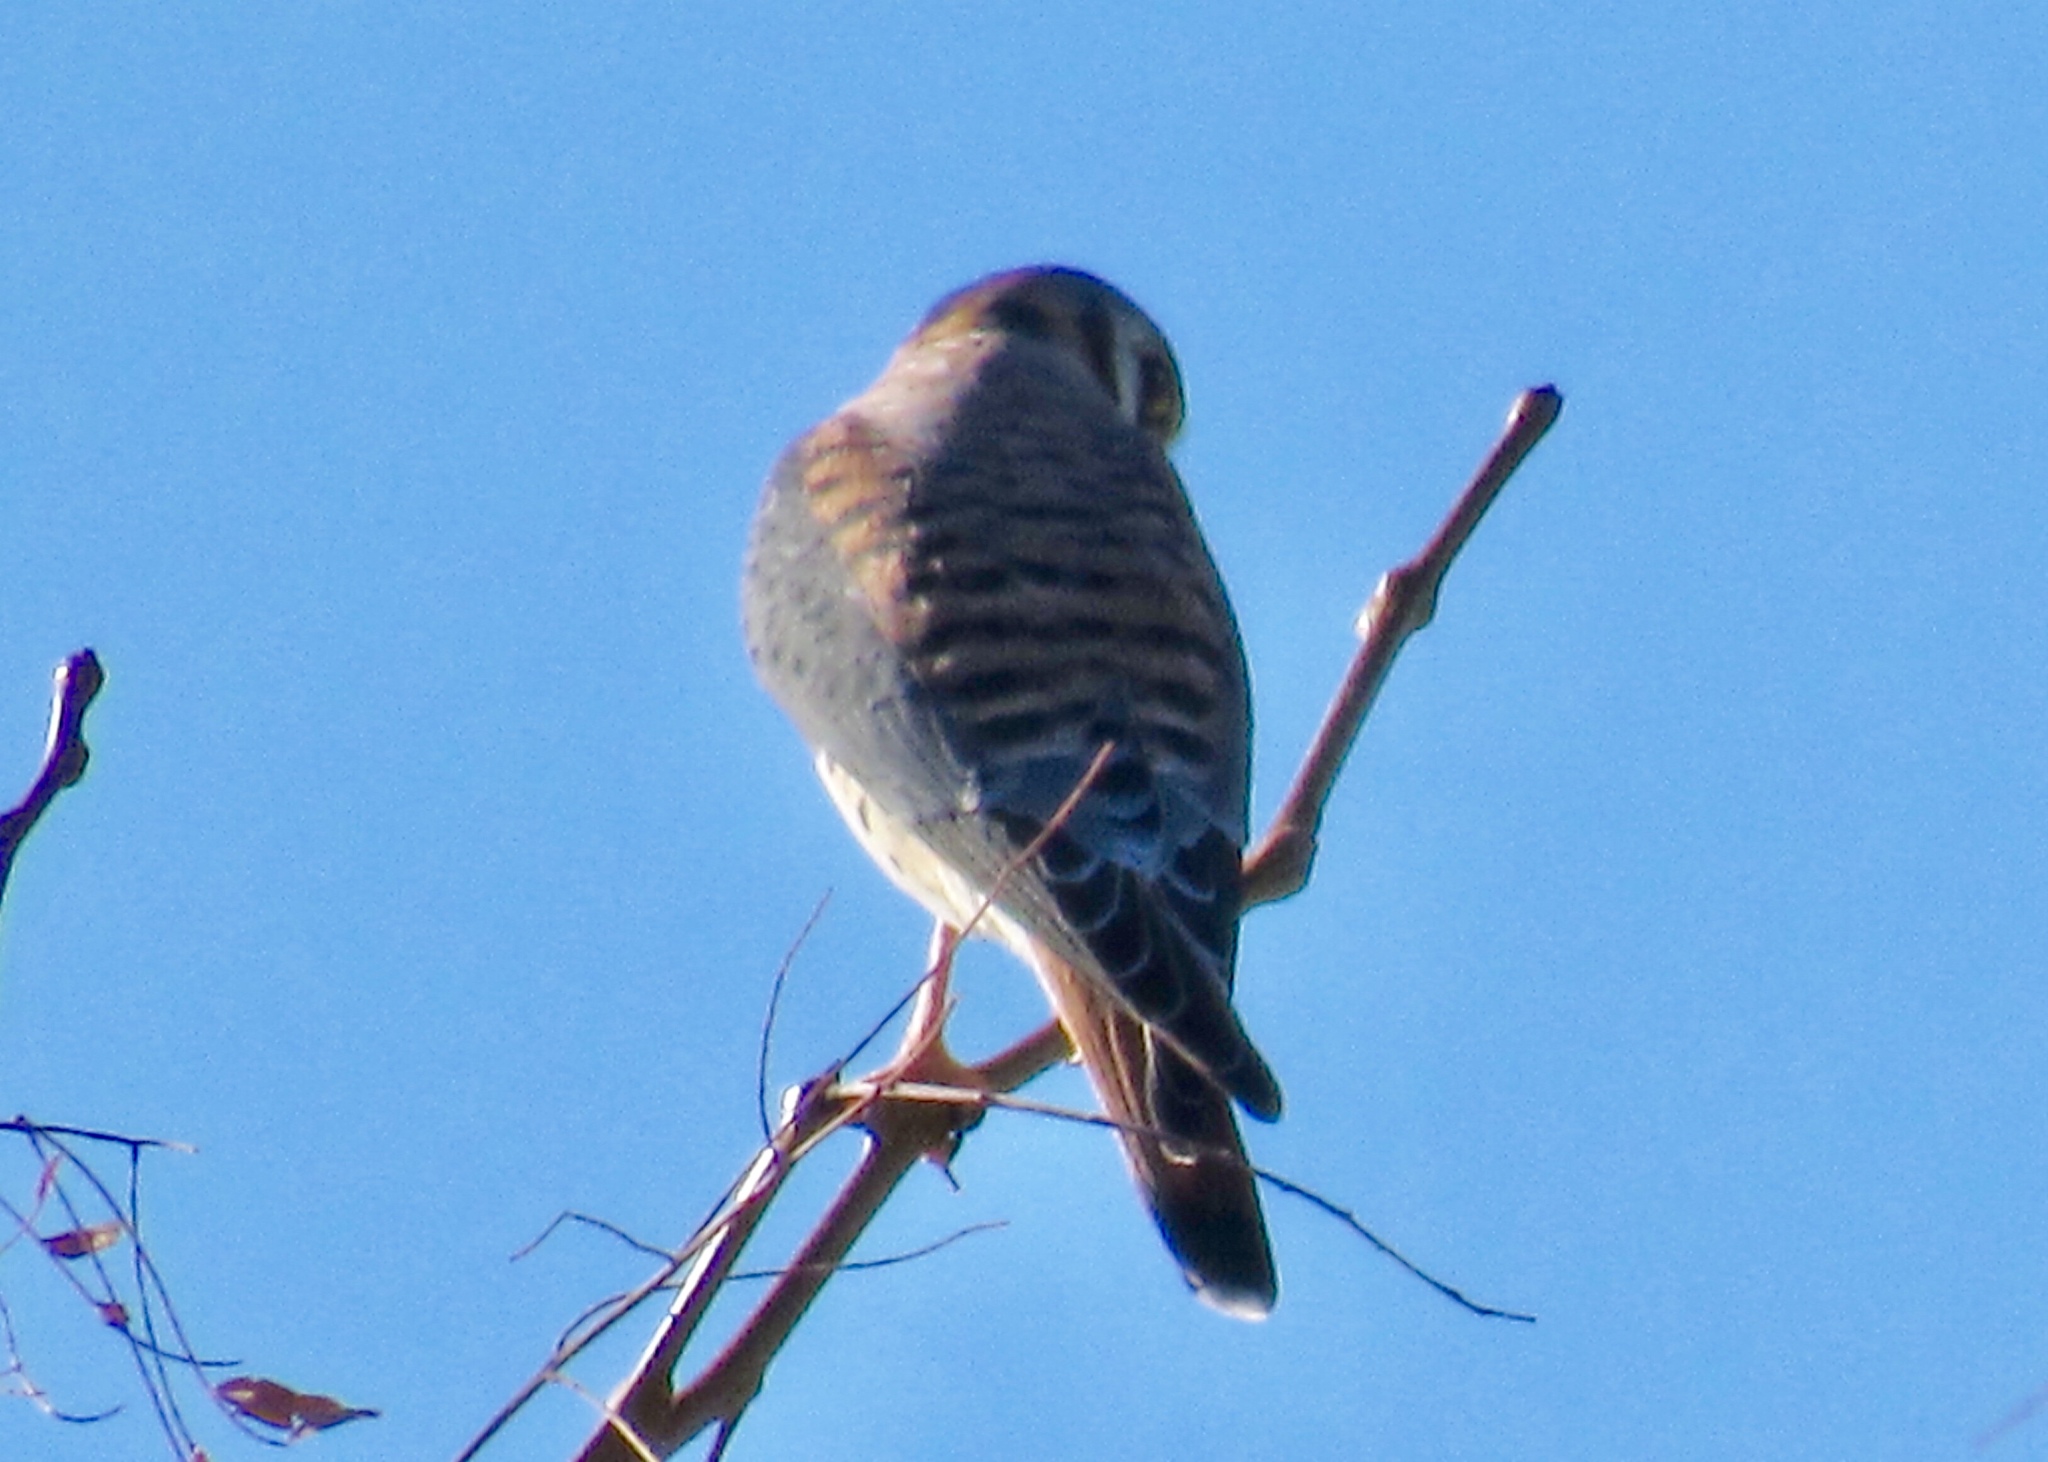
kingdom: Animalia
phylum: Chordata
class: Aves
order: Falconiformes
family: Falconidae
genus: Falco
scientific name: Falco sparverius
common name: American kestrel
